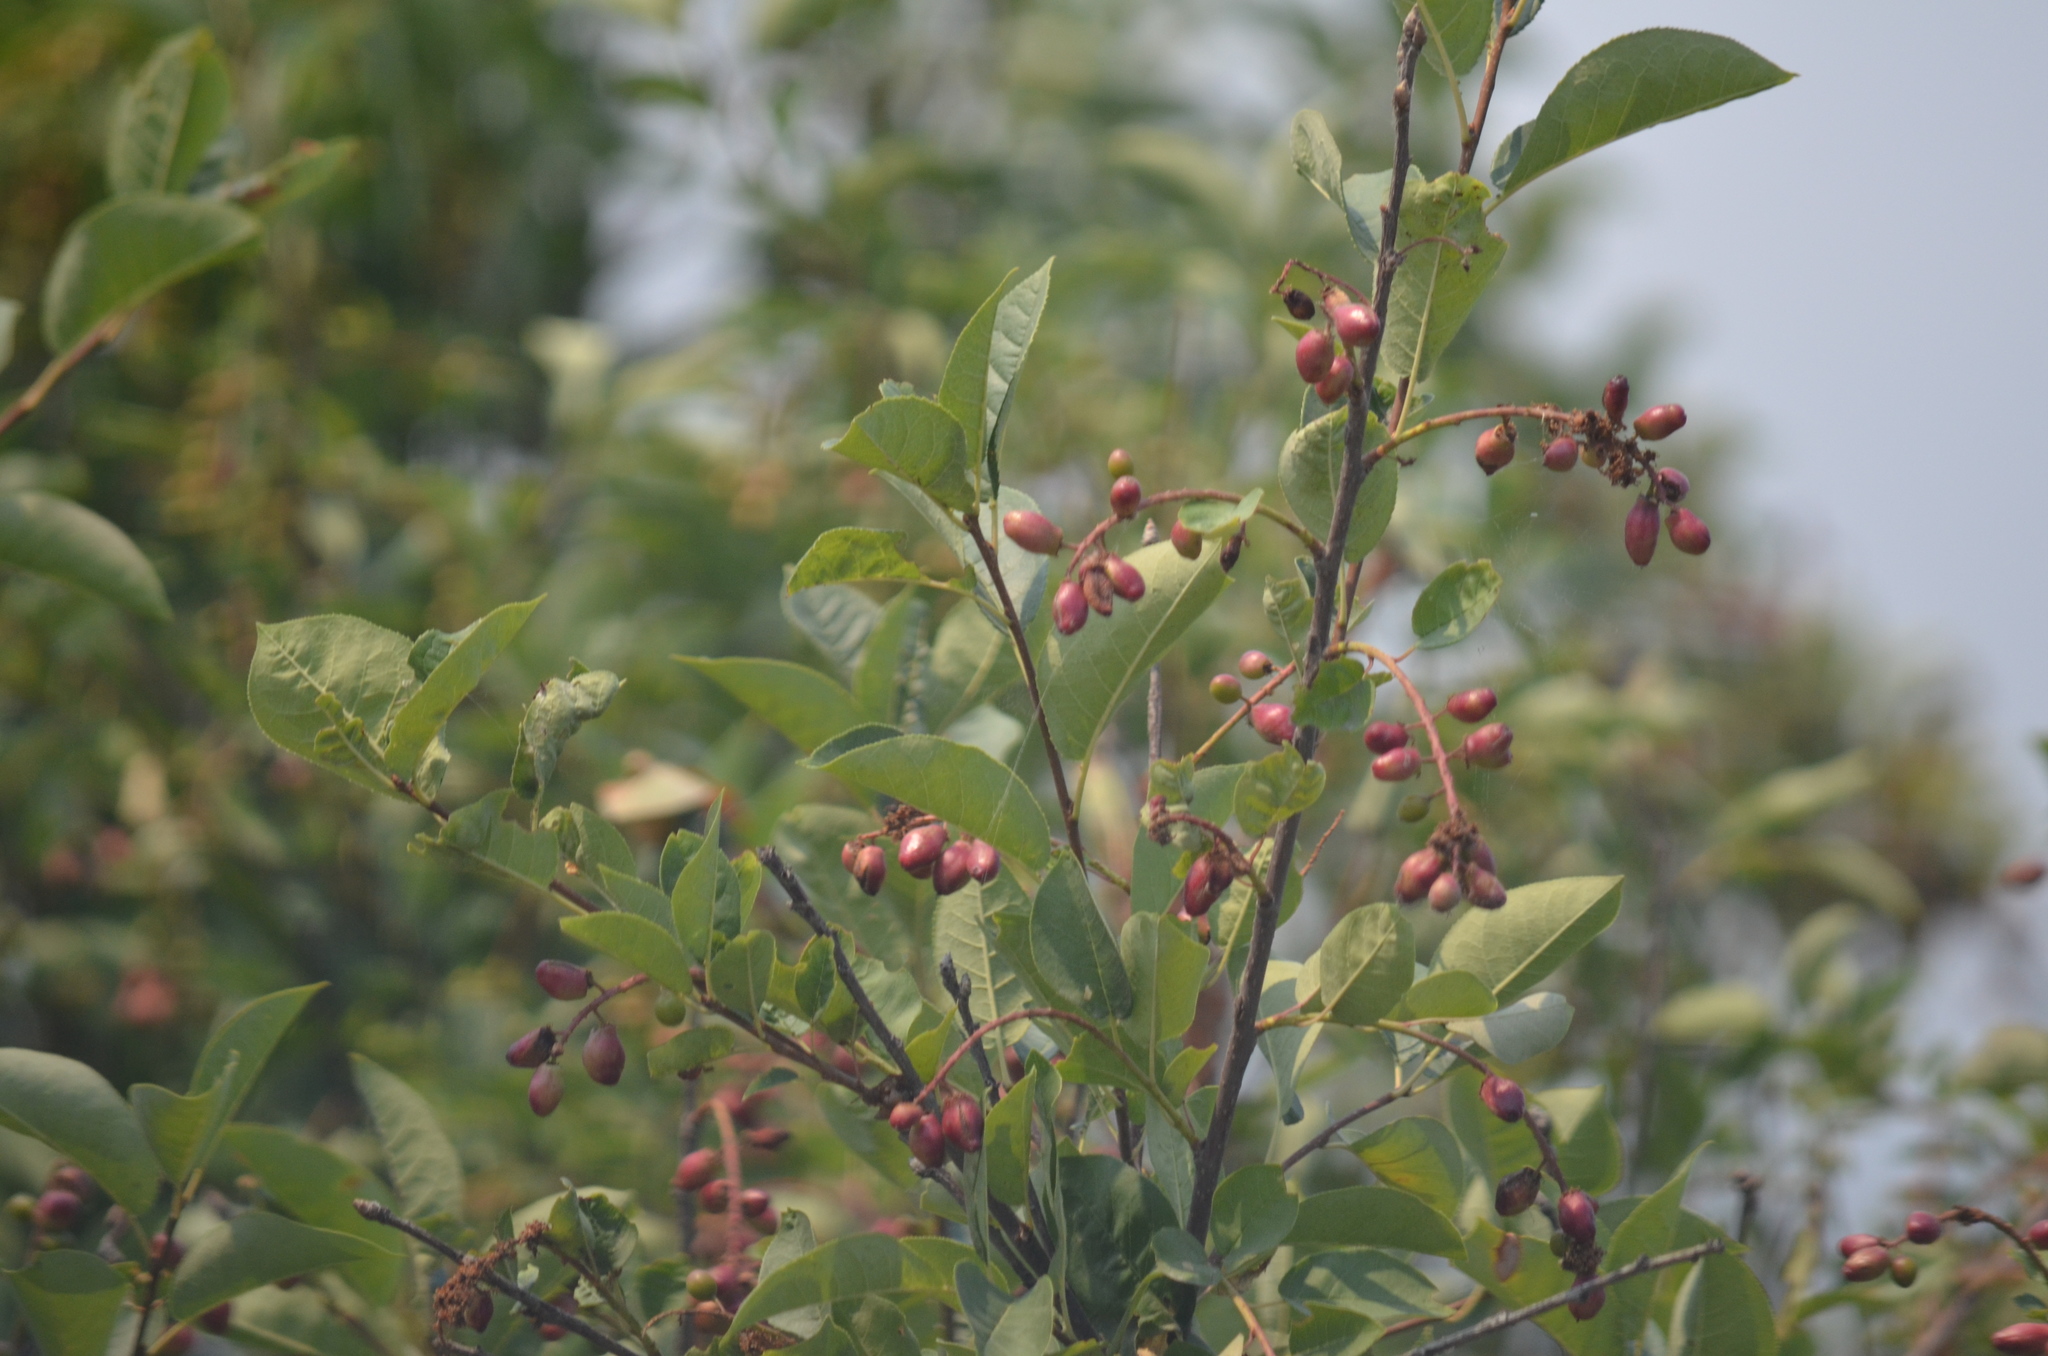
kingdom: Plantae
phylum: Tracheophyta
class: Magnoliopsida
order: Rosales
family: Rosaceae
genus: Prunus
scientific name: Prunus virginiana
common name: Chokecherry
